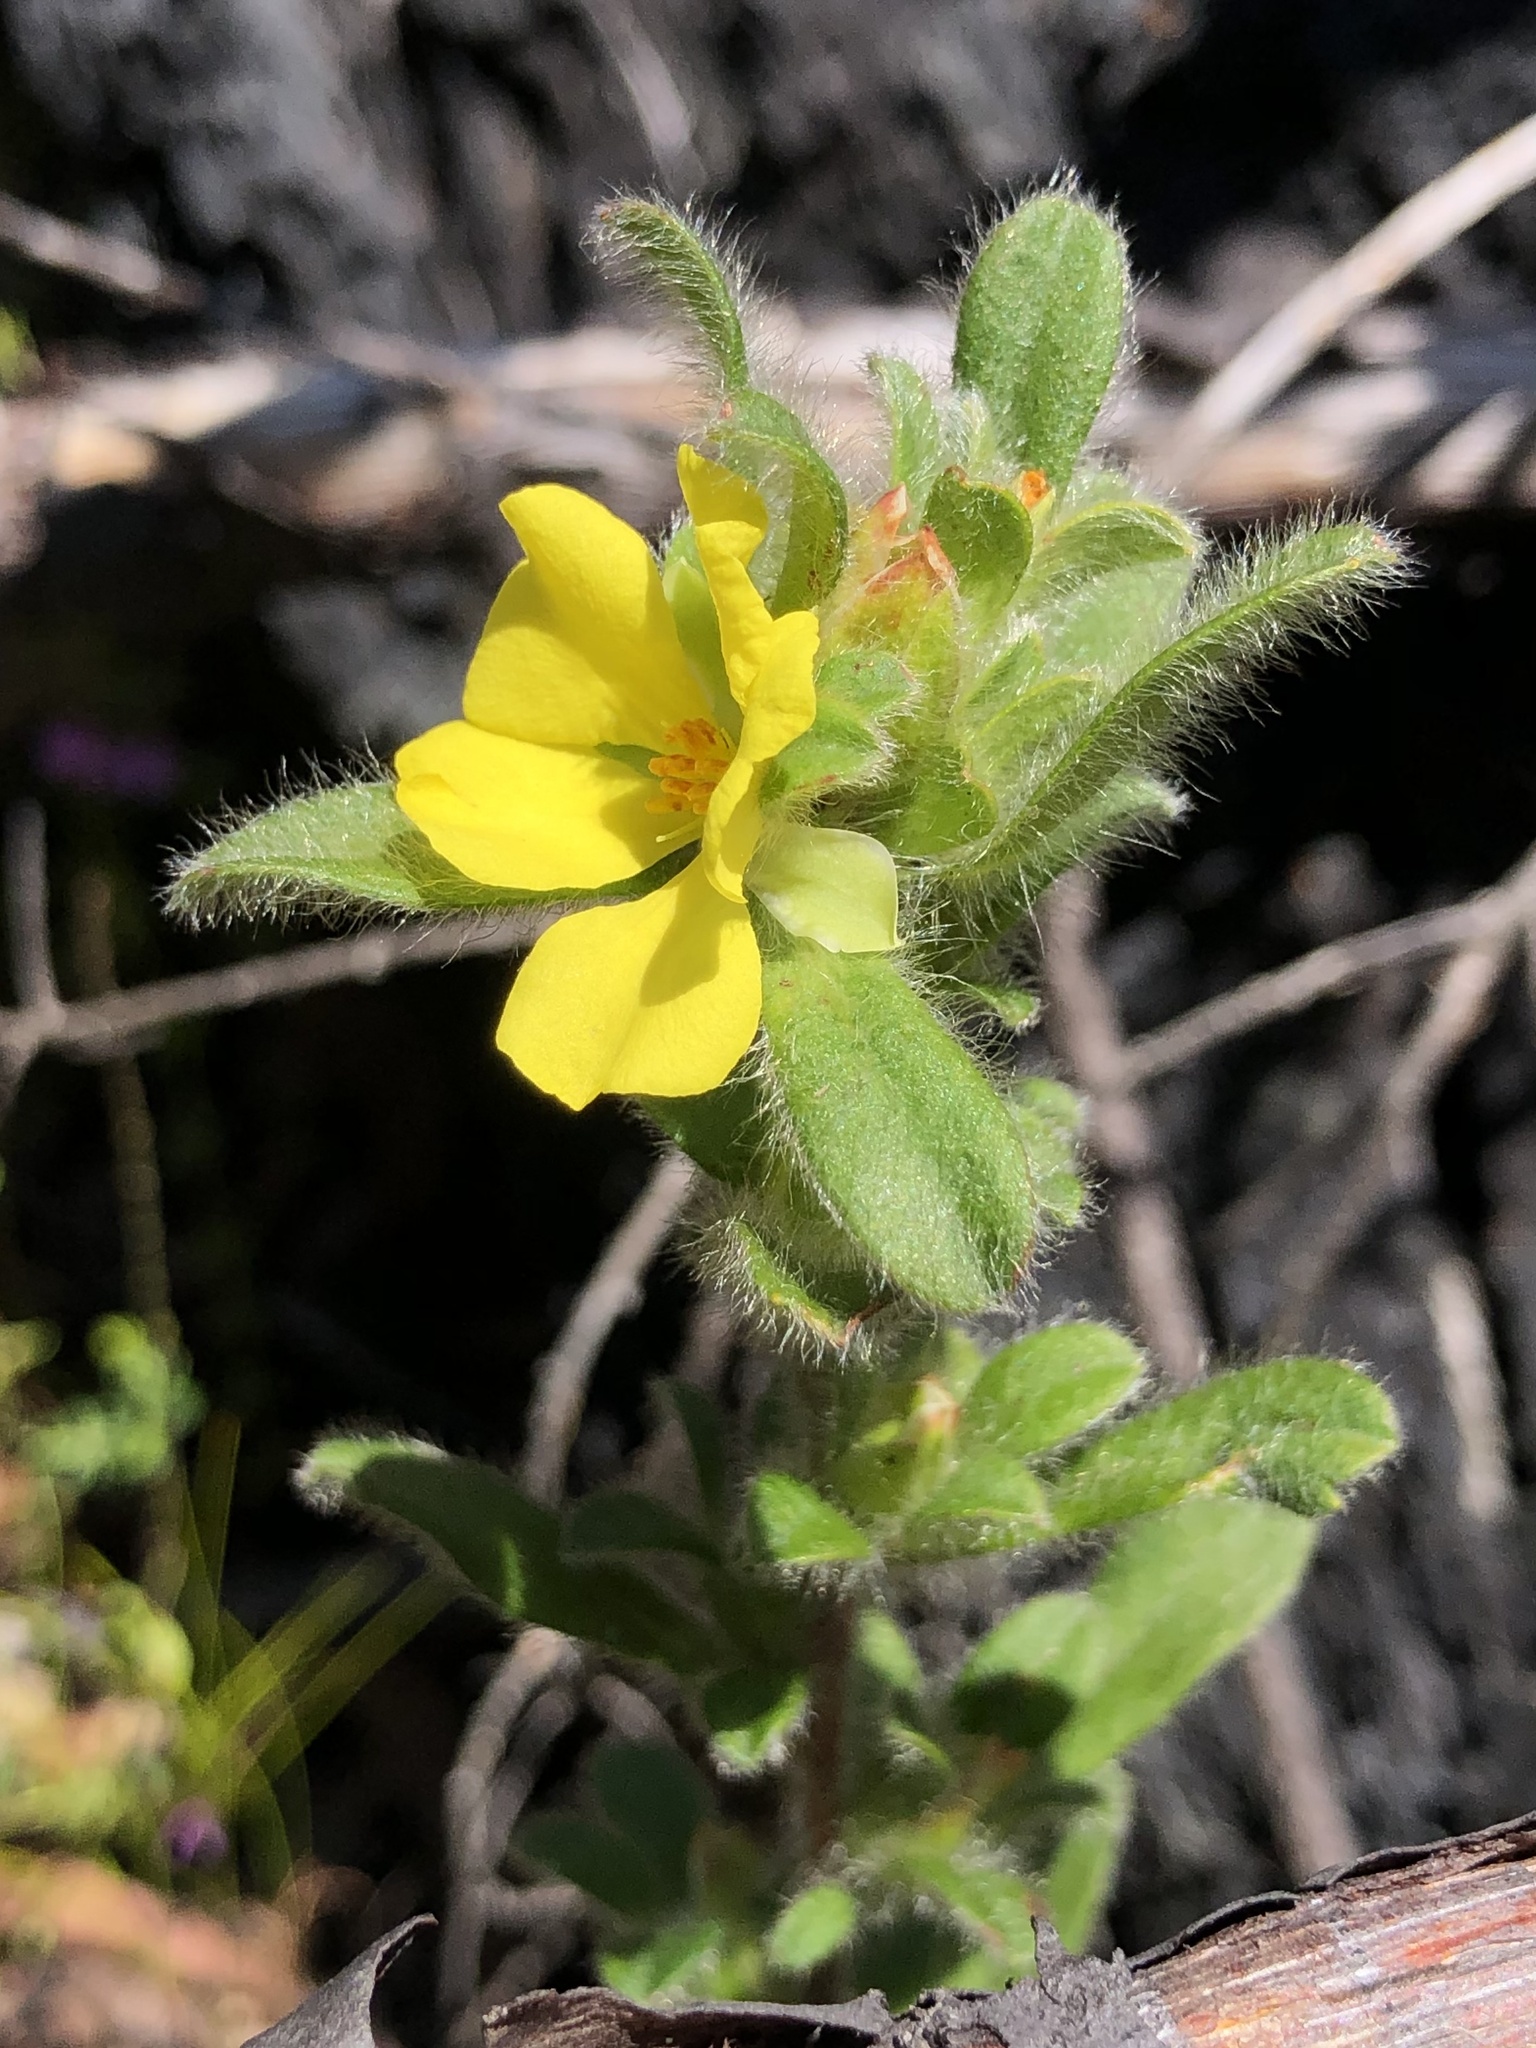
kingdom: Plantae
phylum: Tracheophyta
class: Magnoliopsida
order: Dilleniales
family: Dilleniaceae
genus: Hibbertia
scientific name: Hibbertia villosa
